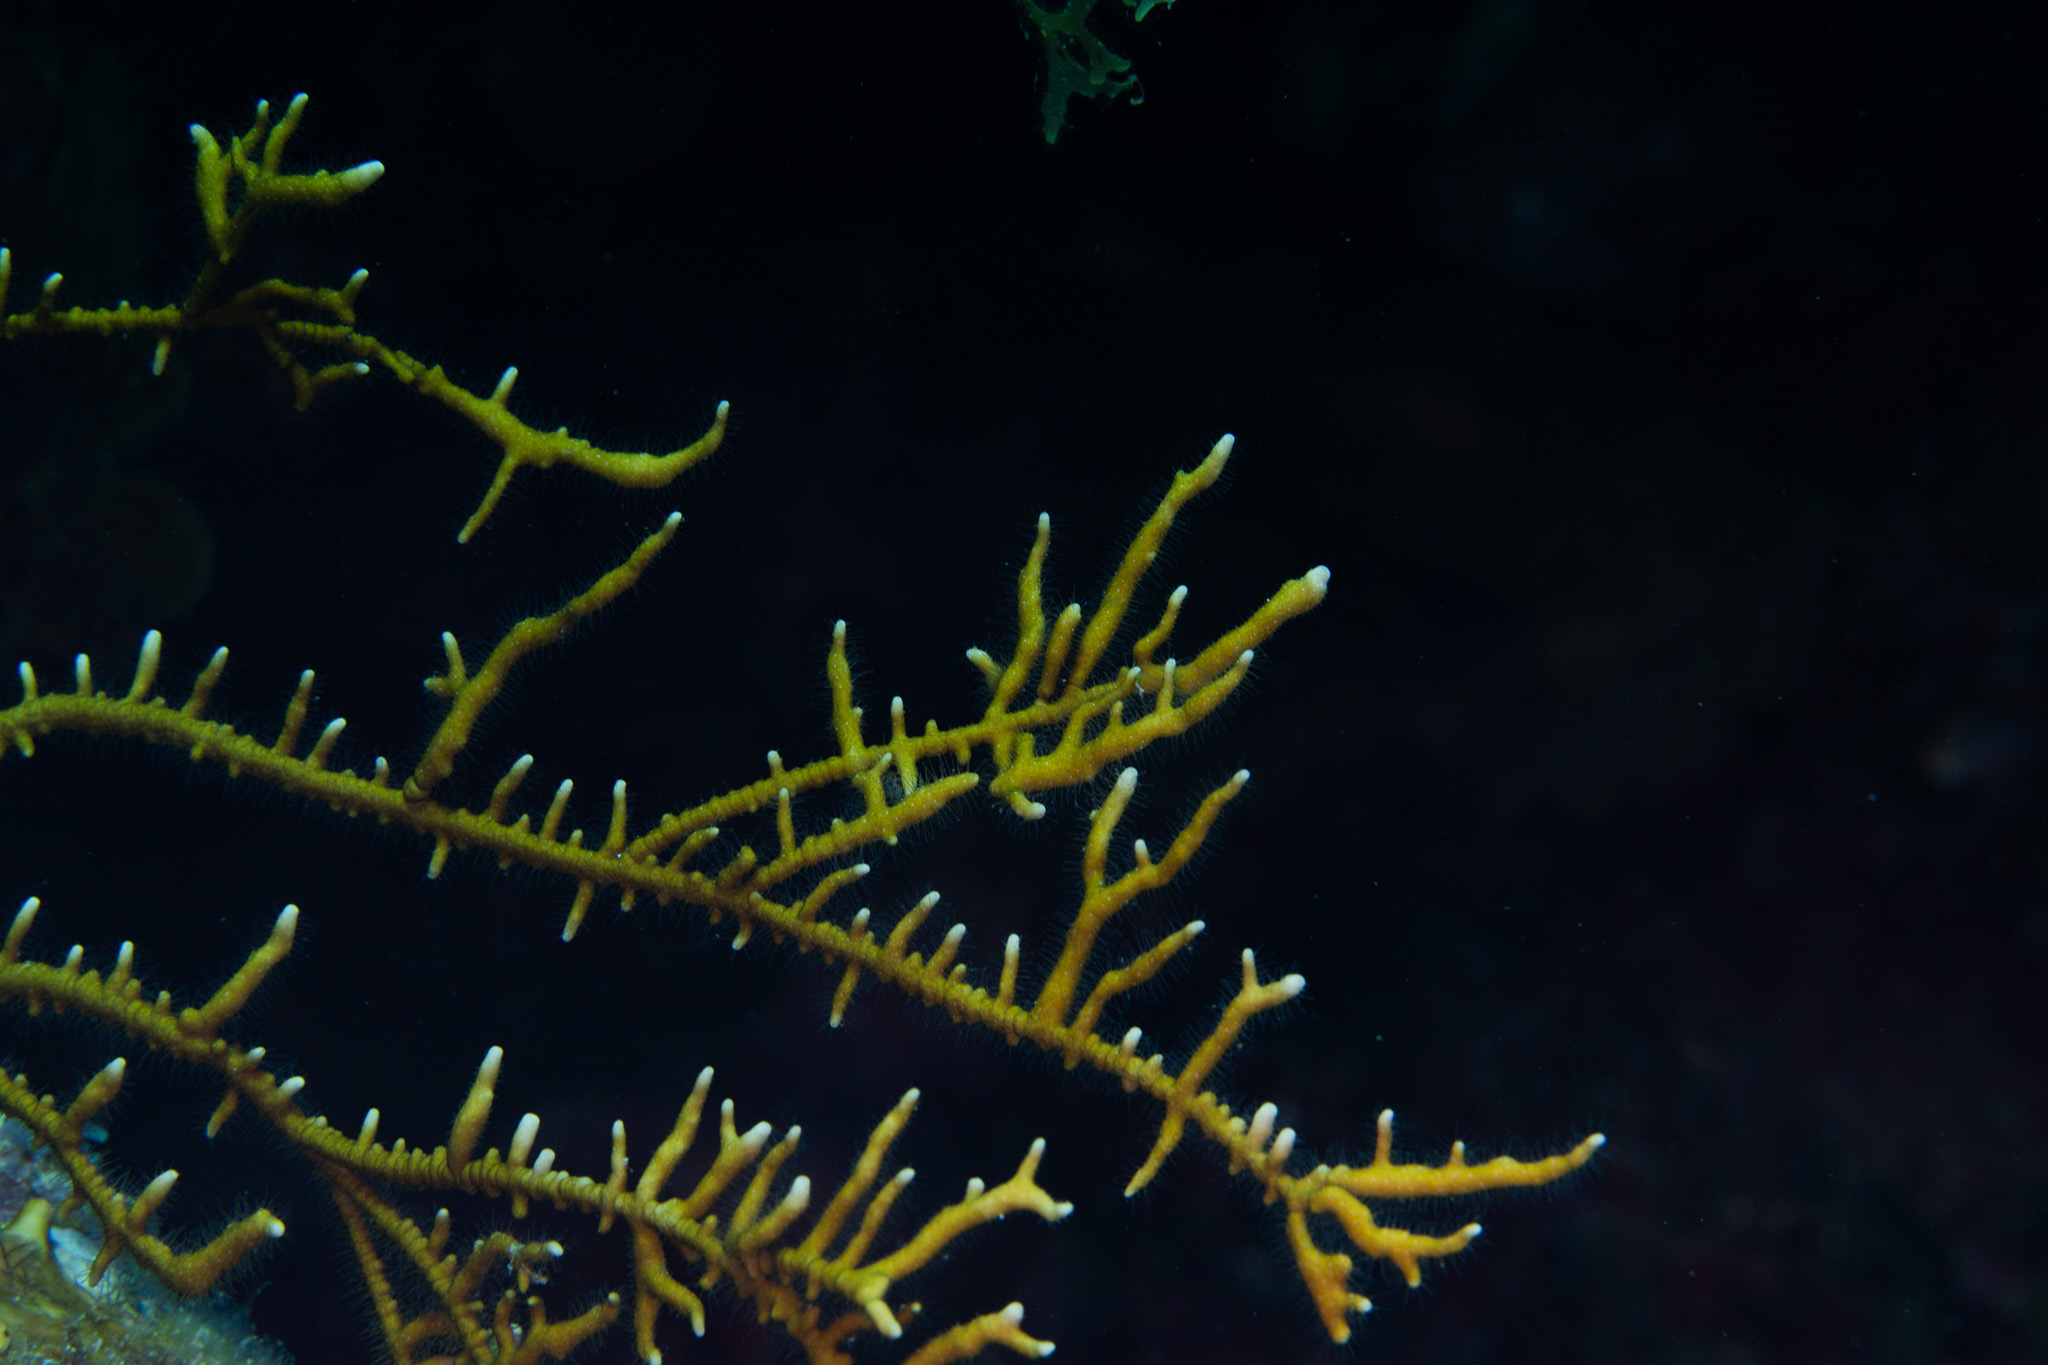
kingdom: Animalia
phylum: Cnidaria
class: Hydrozoa
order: Anthoathecata
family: Milleporidae
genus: Millepora
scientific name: Millepora alcicornis
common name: Branching fire coral
